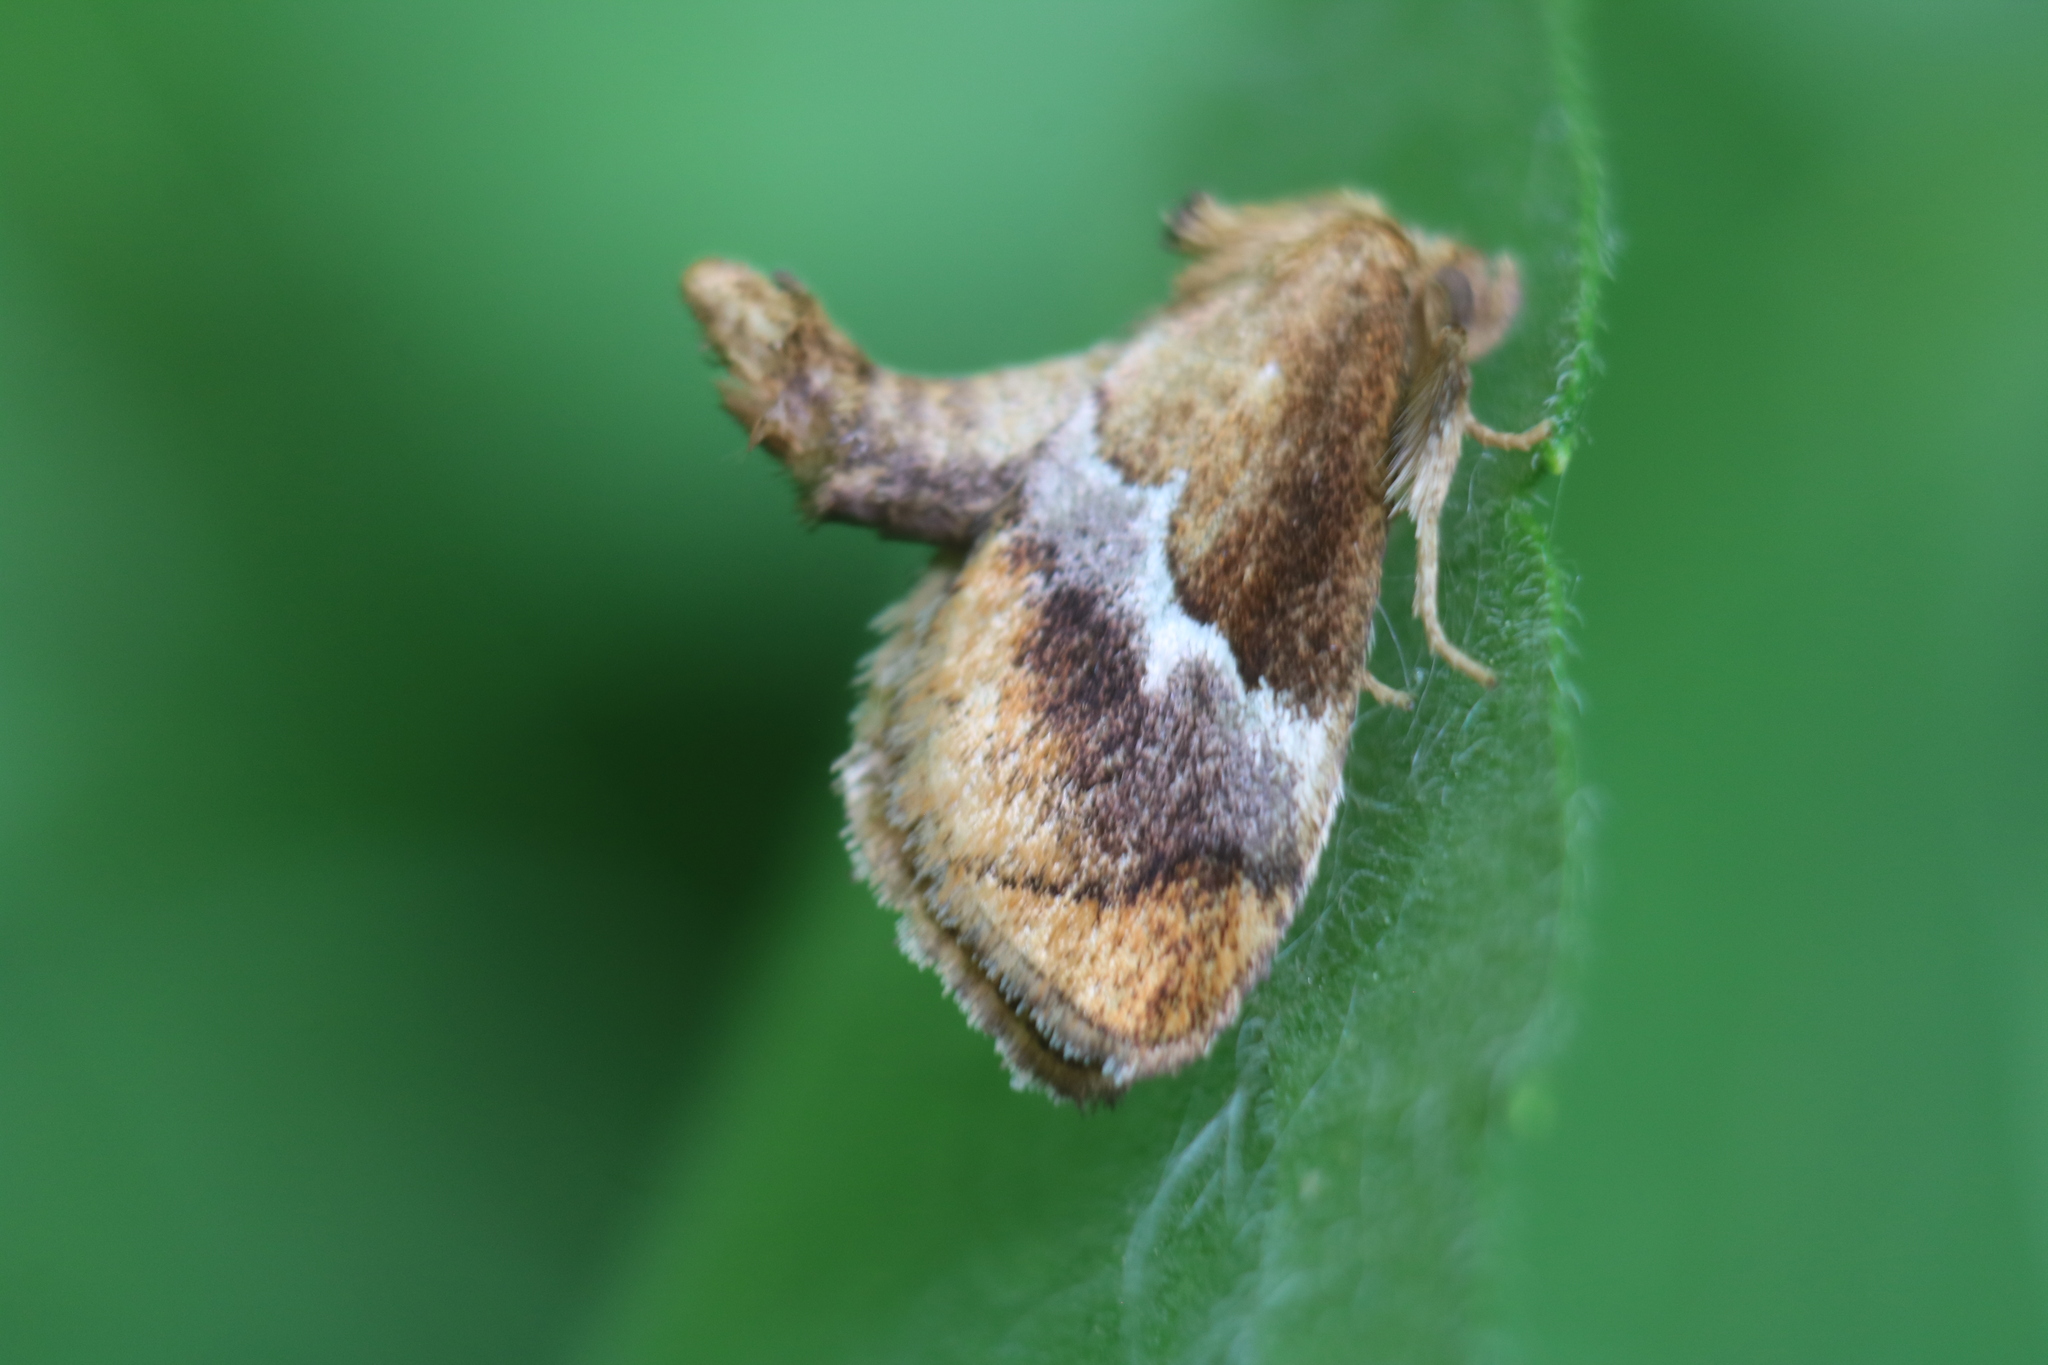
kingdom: Animalia
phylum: Arthropoda
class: Insecta
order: Lepidoptera
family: Limacodidae
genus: Lithacodes
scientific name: Lithacodes fasciola
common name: Yellow-shouldered slug moth
